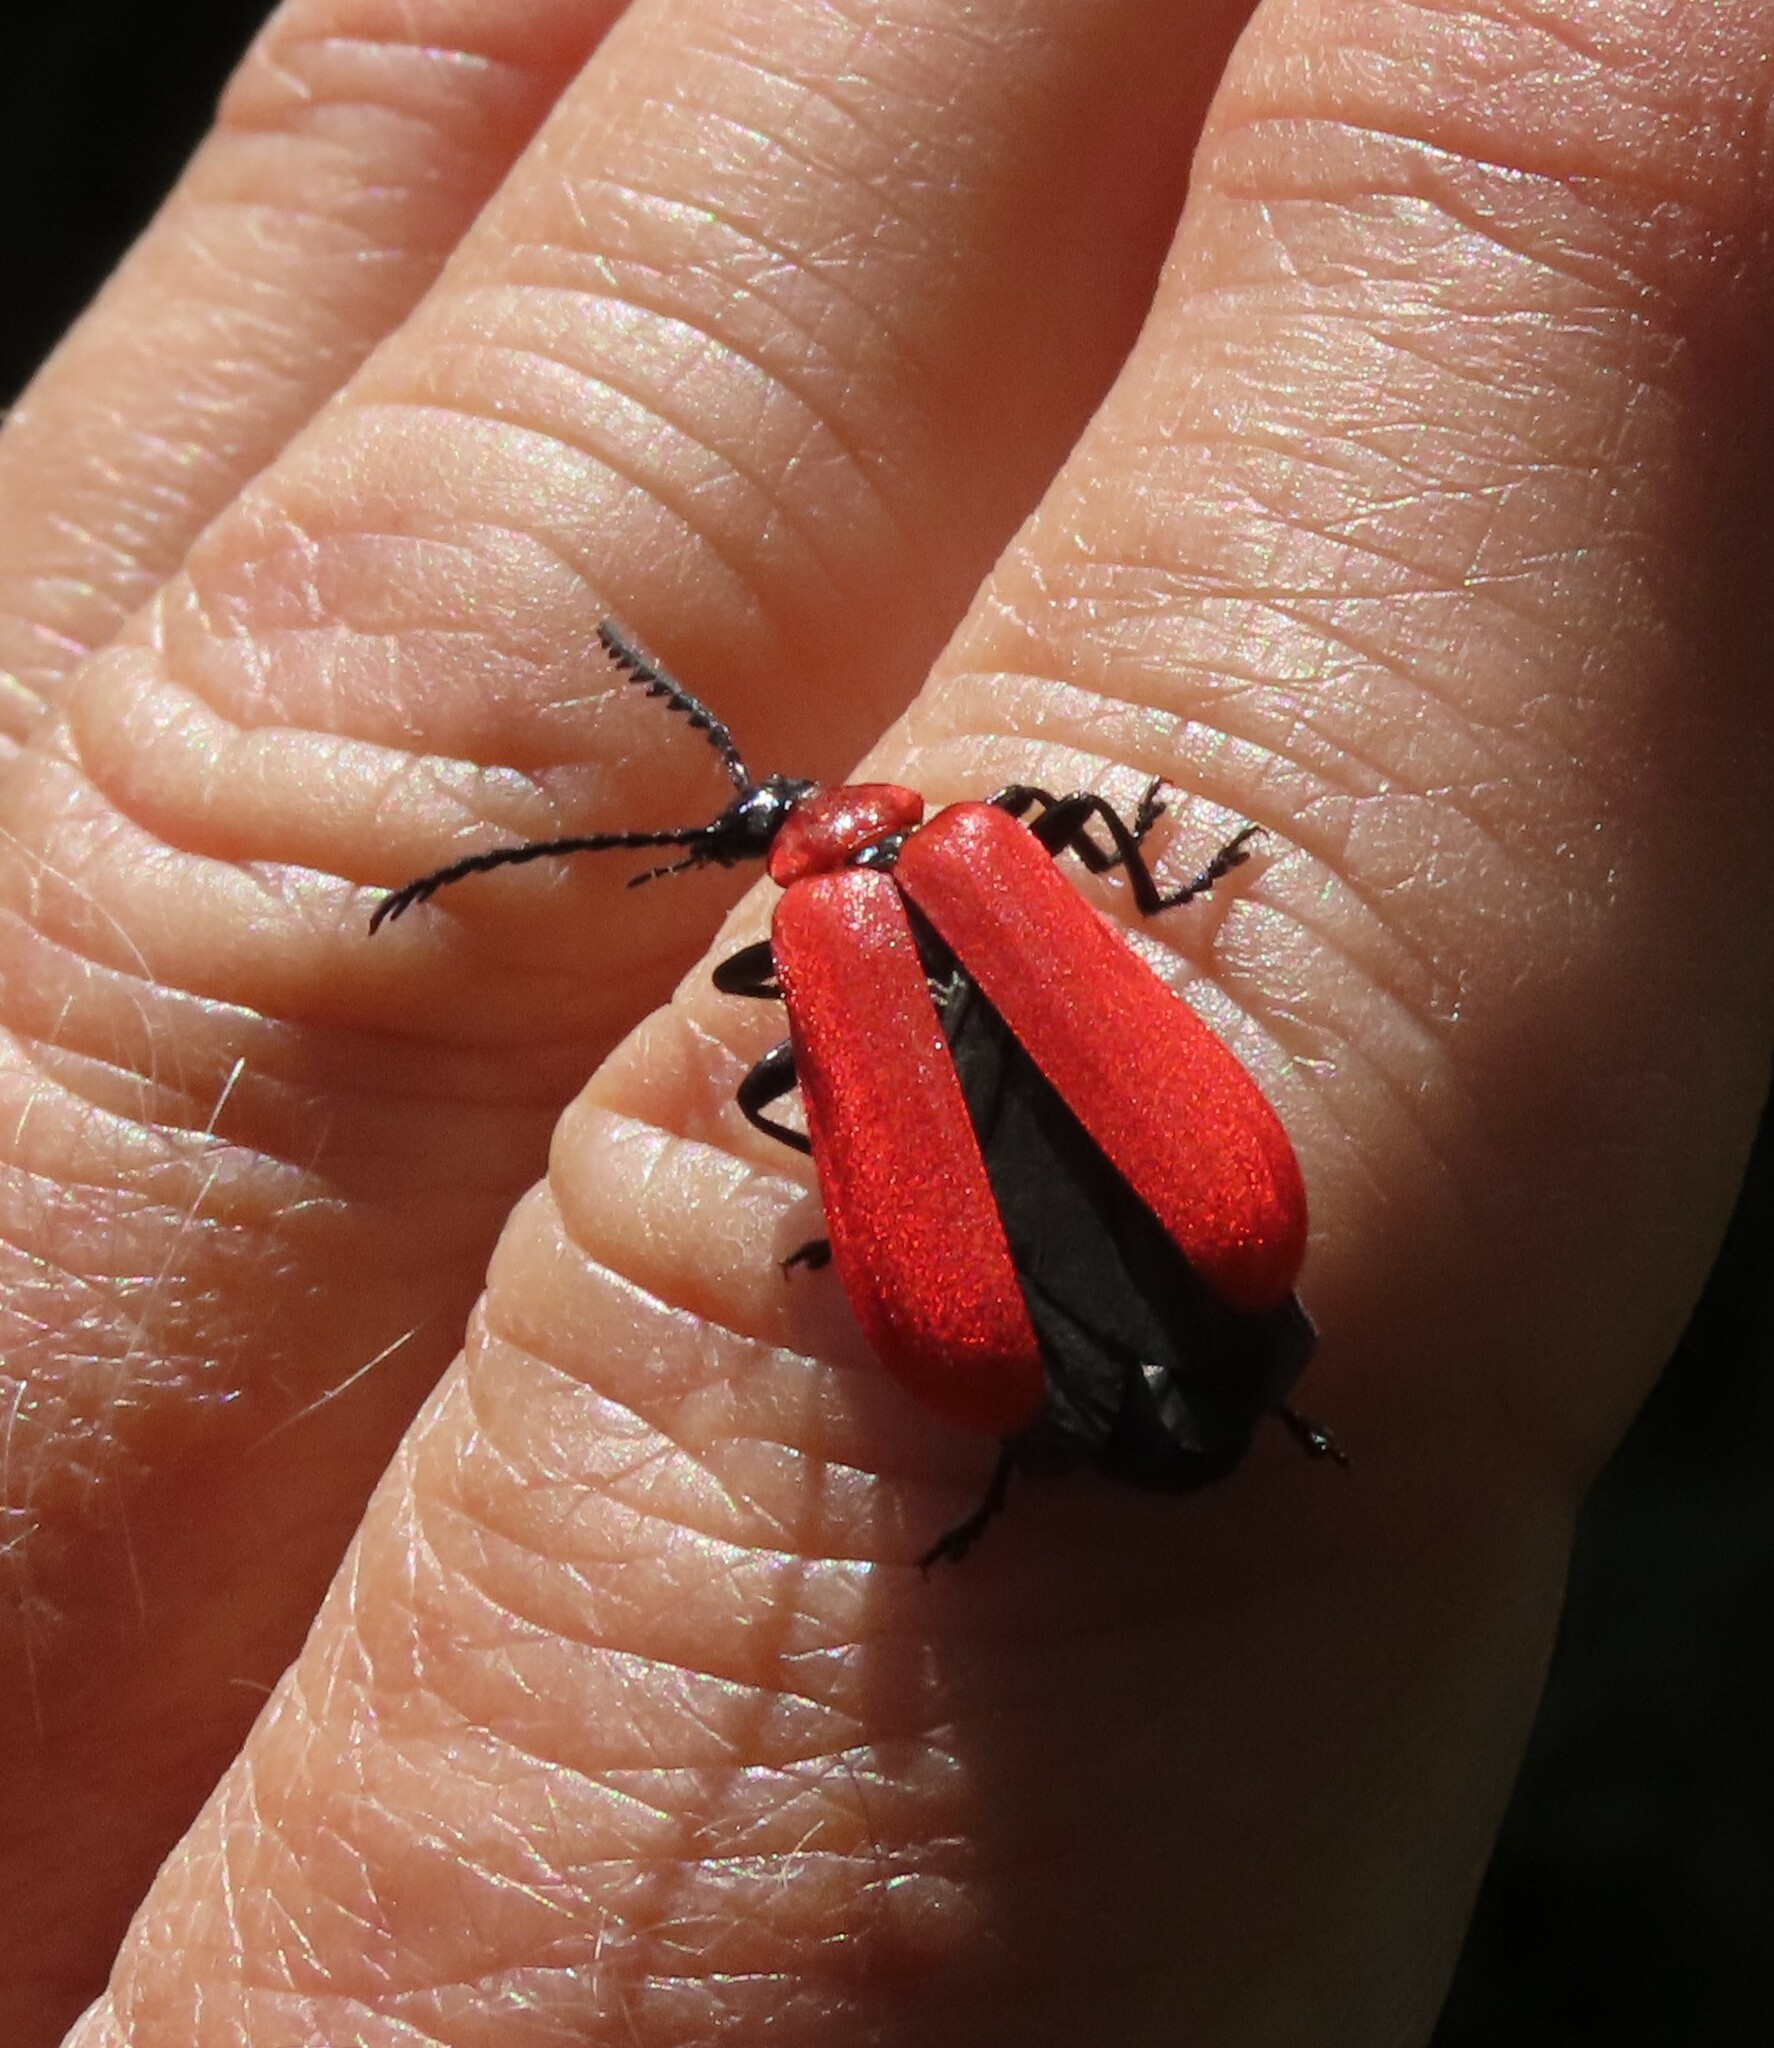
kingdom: Animalia
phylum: Arthropoda
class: Insecta
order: Coleoptera
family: Pyrochroidae
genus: Pyrochroa
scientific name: Pyrochroa coccinea
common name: Black-headed cardinal beetle
